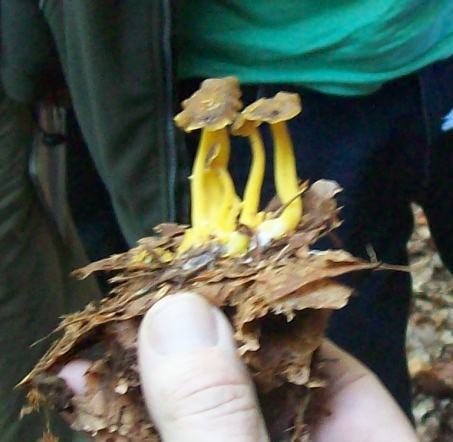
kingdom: Fungi
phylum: Basidiomycota
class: Agaricomycetes
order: Cantharellales
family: Hydnaceae
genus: Craterellus
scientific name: Craterellus tubaeformis
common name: Yellowfoot
